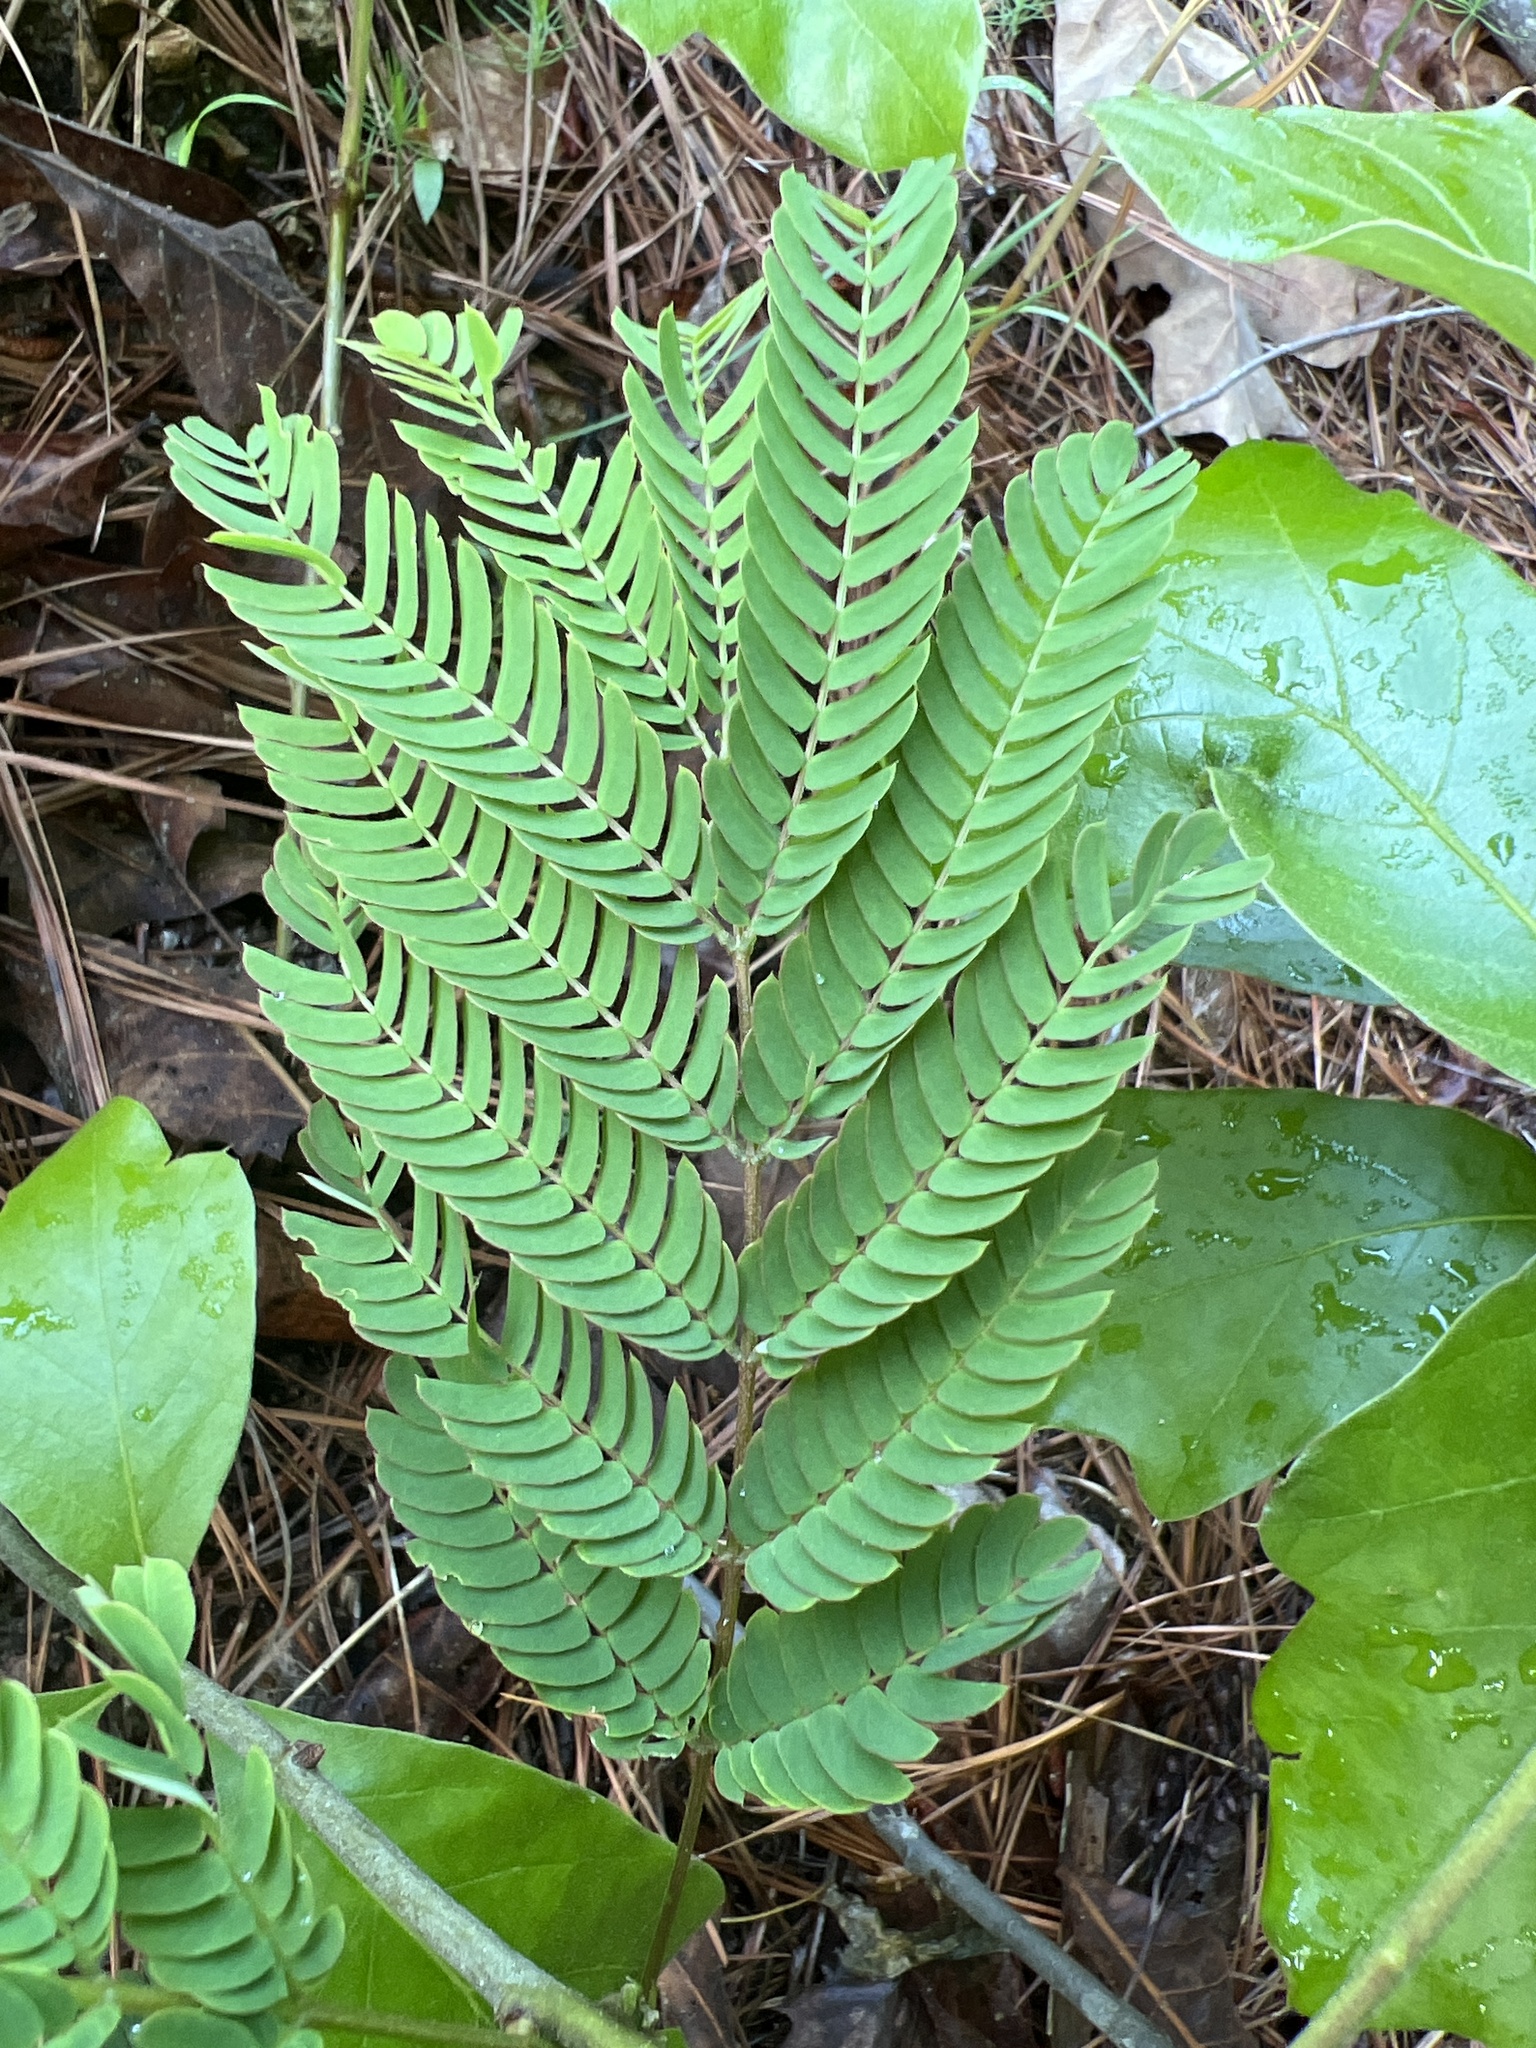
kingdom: Plantae
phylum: Tracheophyta
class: Magnoliopsida
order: Fabales
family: Fabaceae
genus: Albizia
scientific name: Albizia julibrissin
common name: Silktree
